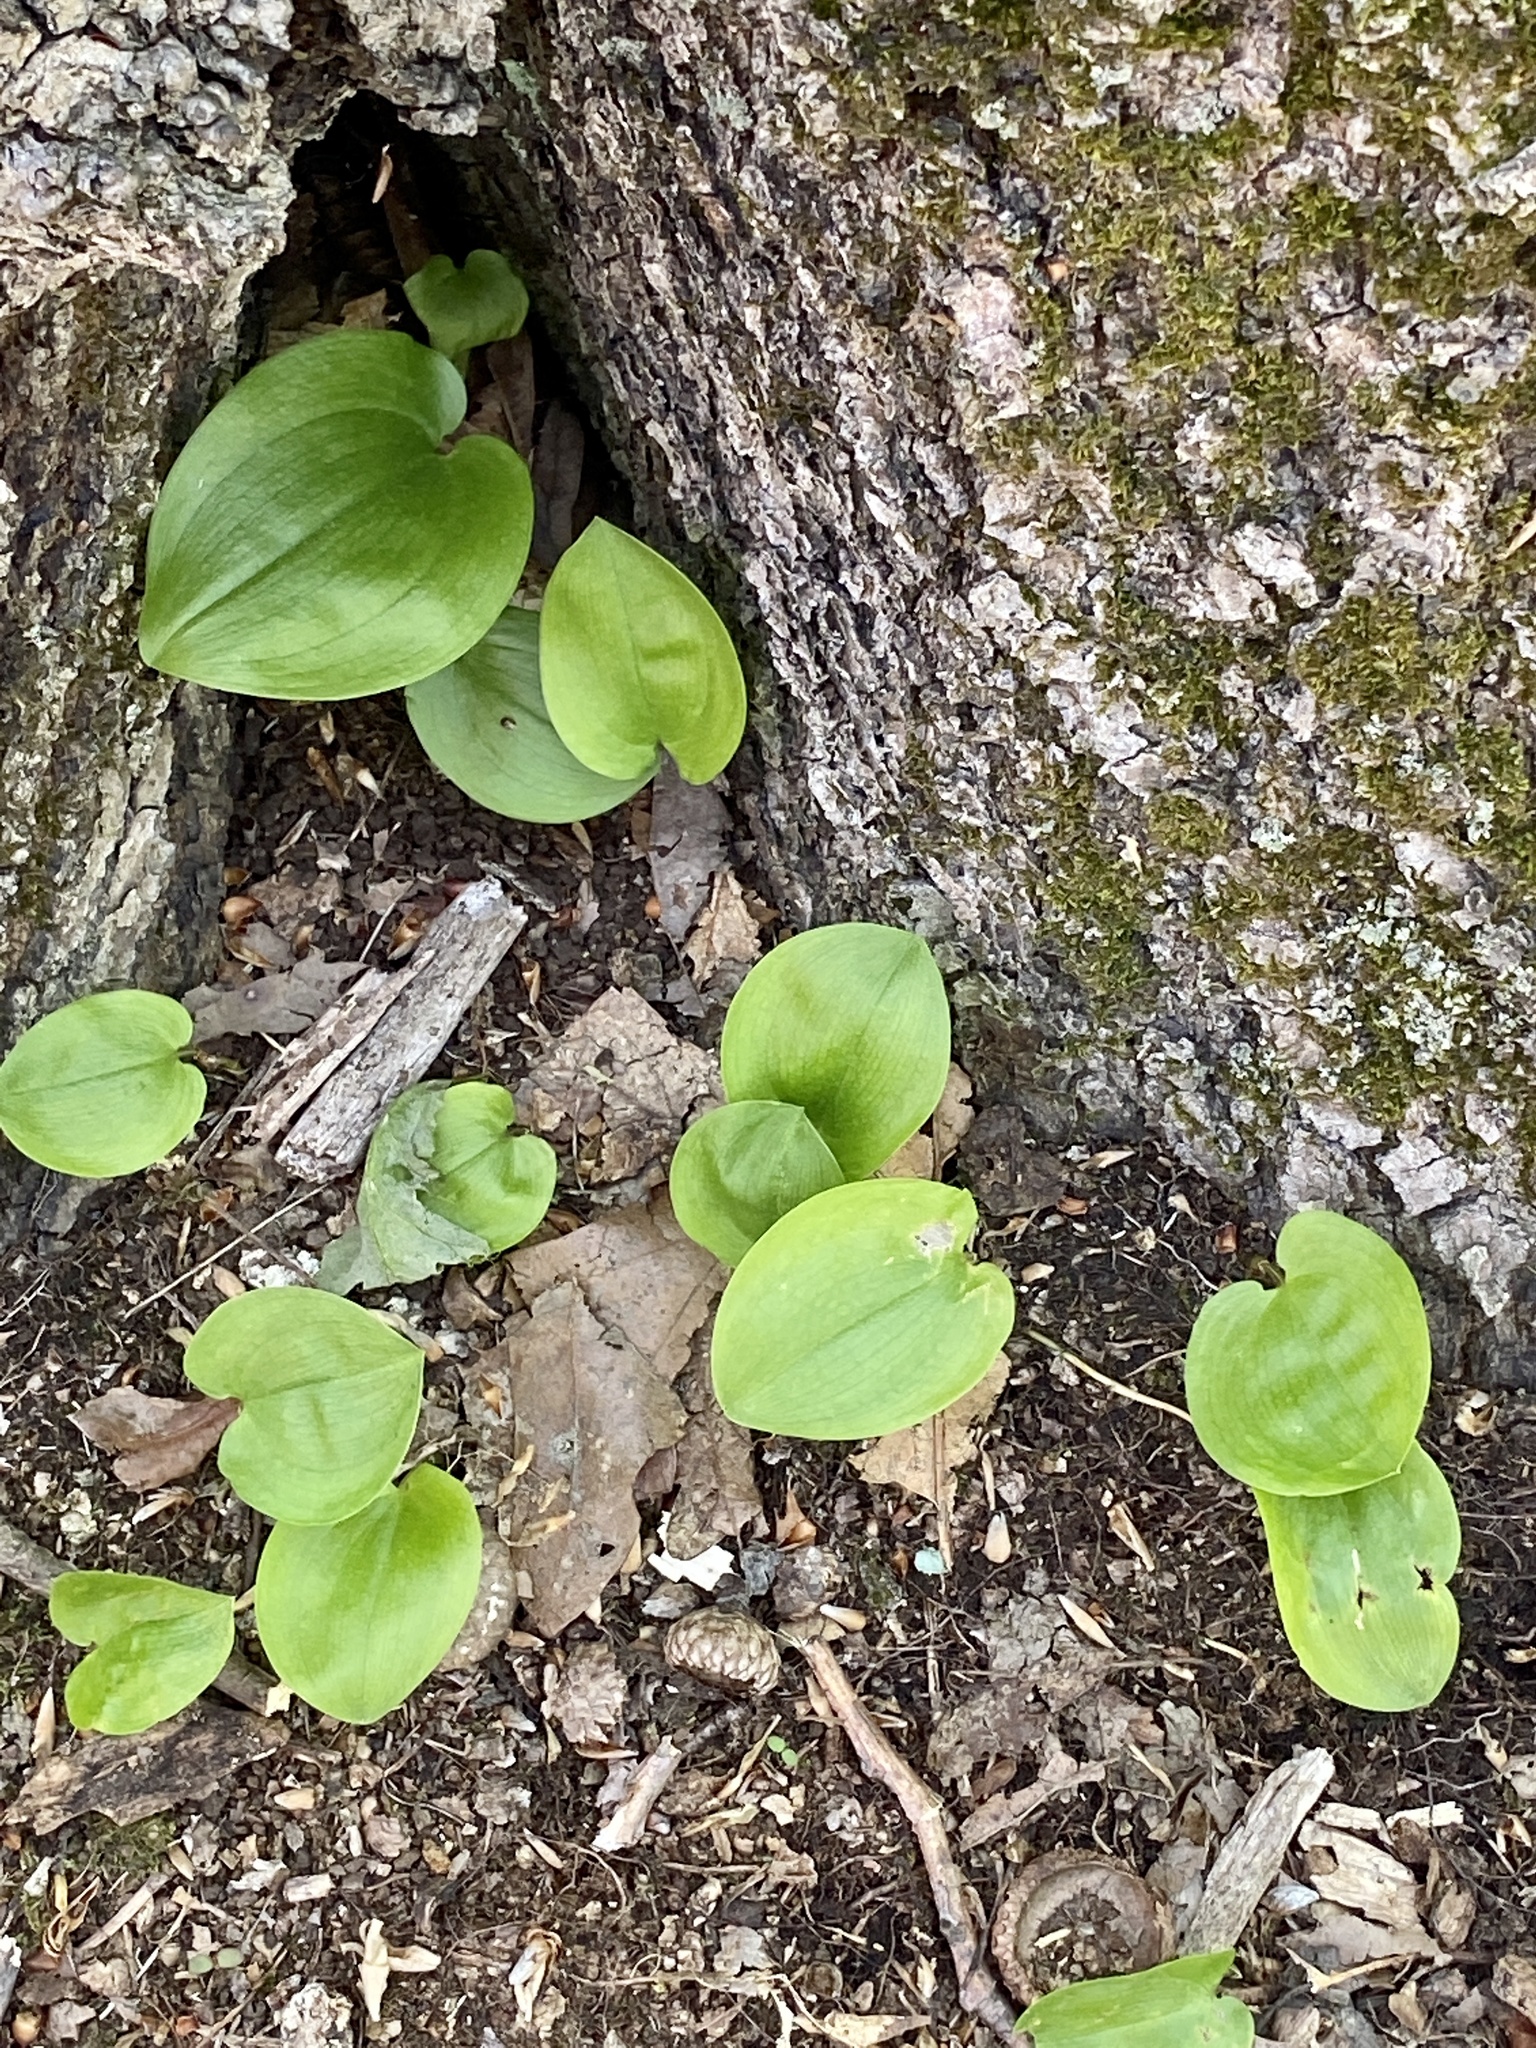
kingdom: Plantae
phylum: Tracheophyta
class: Liliopsida
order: Asparagales
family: Asparagaceae
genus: Maianthemum
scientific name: Maianthemum canadense
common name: False lily-of-the-valley
